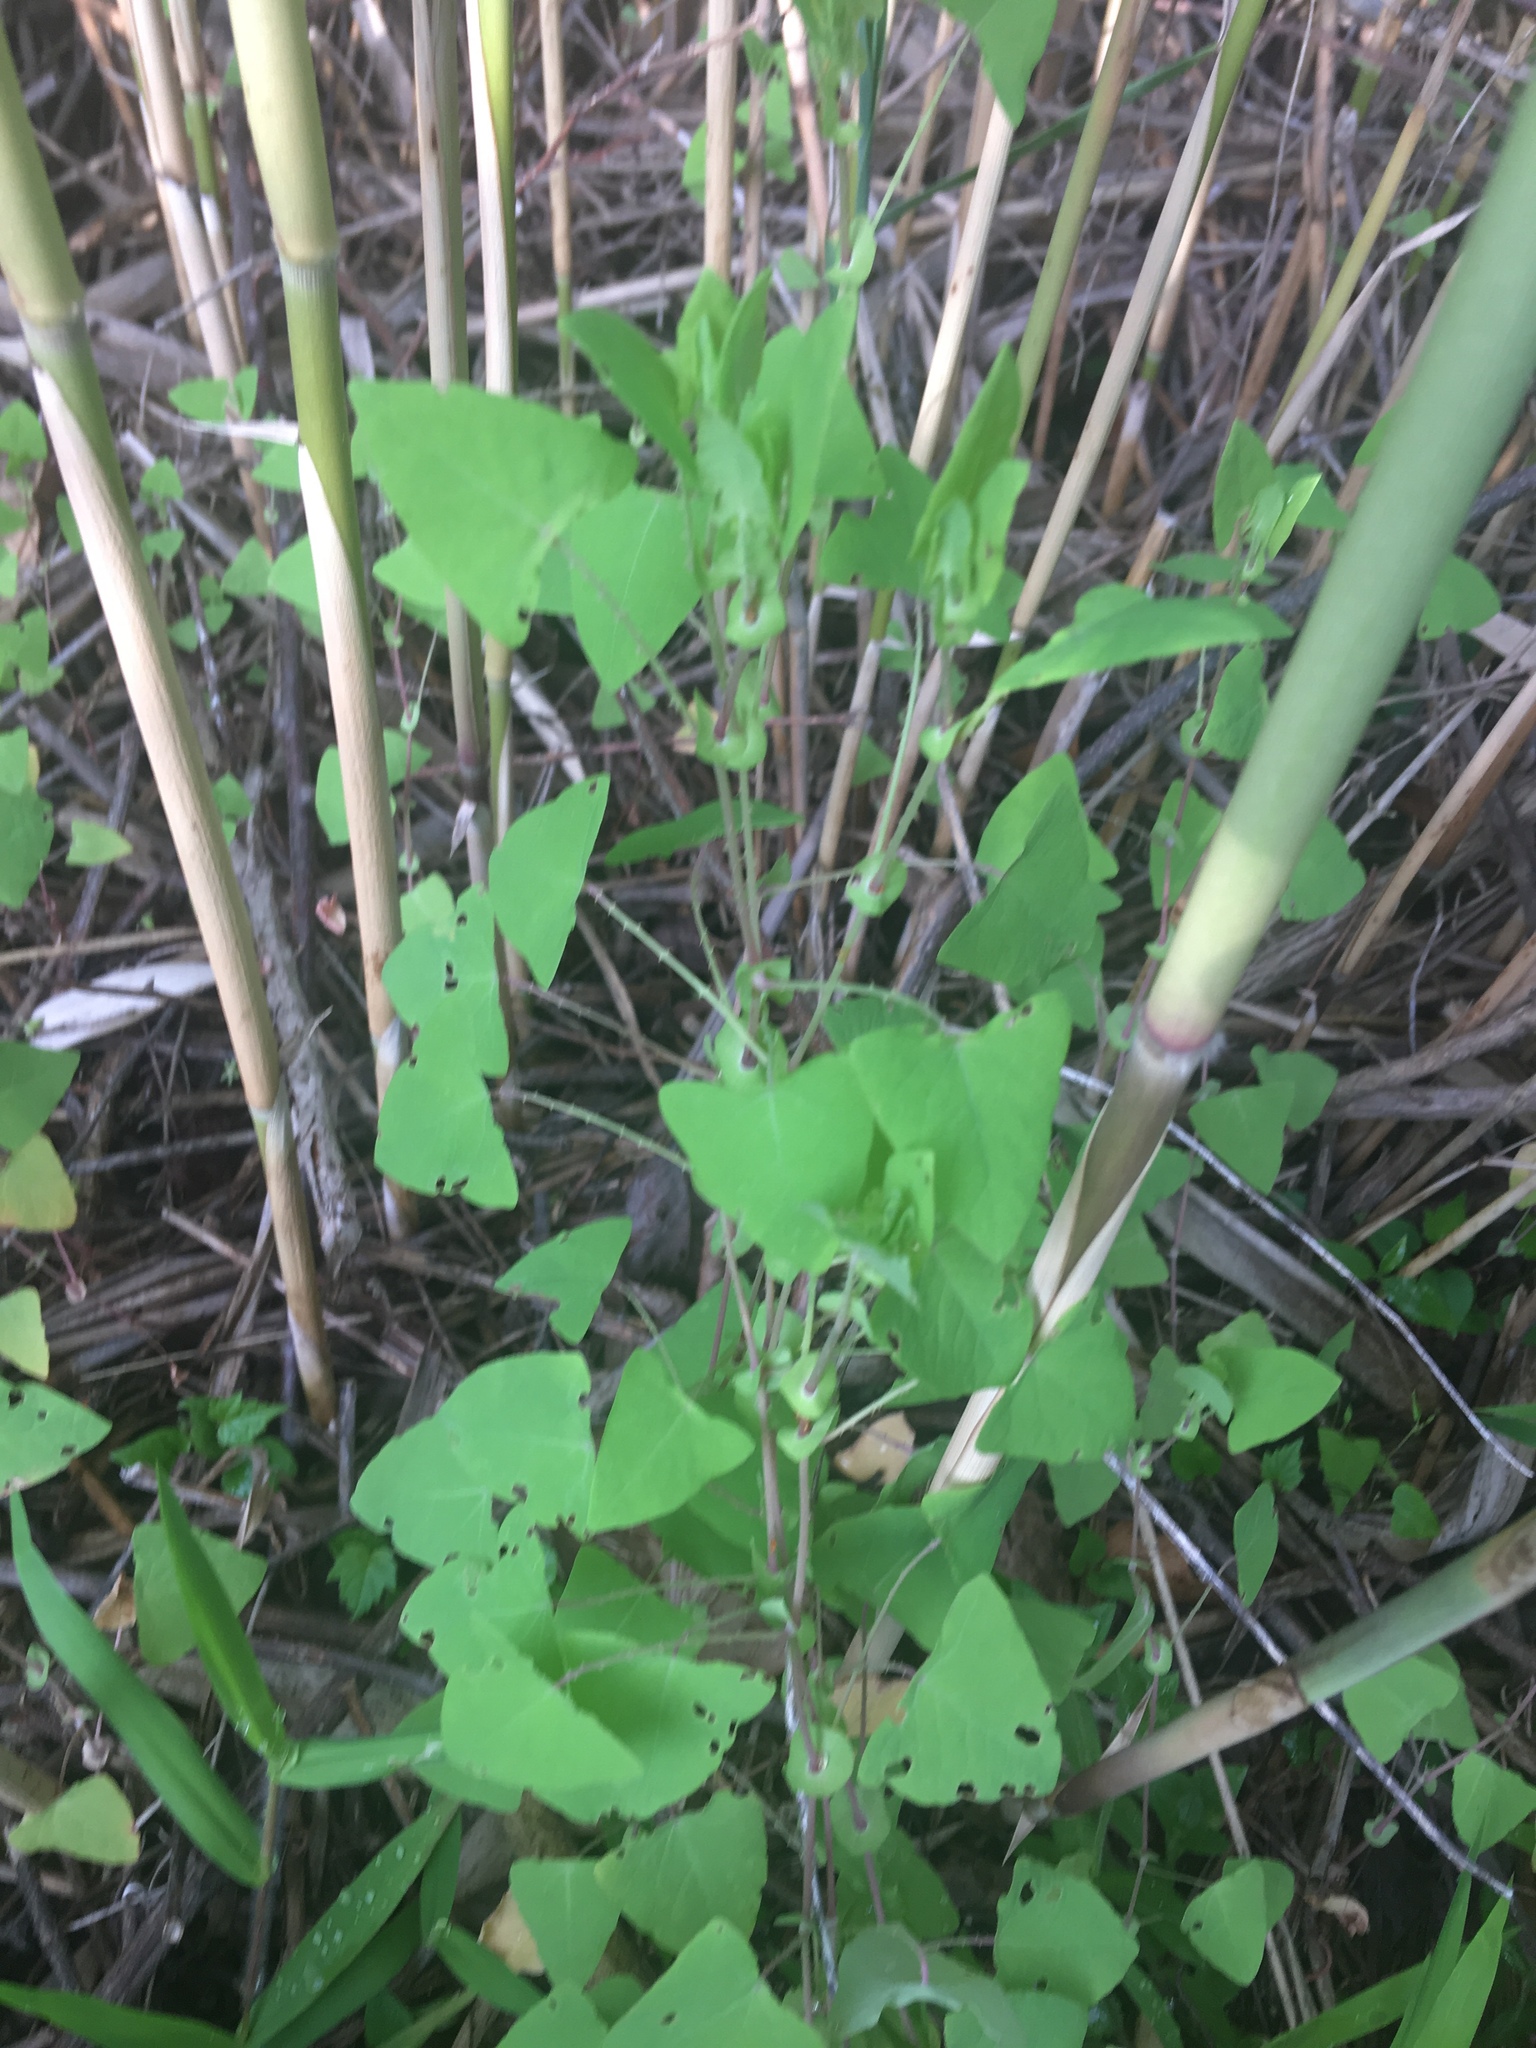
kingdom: Plantae
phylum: Tracheophyta
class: Magnoliopsida
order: Caryophyllales
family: Polygonaceae
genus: Persicaria
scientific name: Persicaria perfoliata
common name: Asiatic tearthumb
